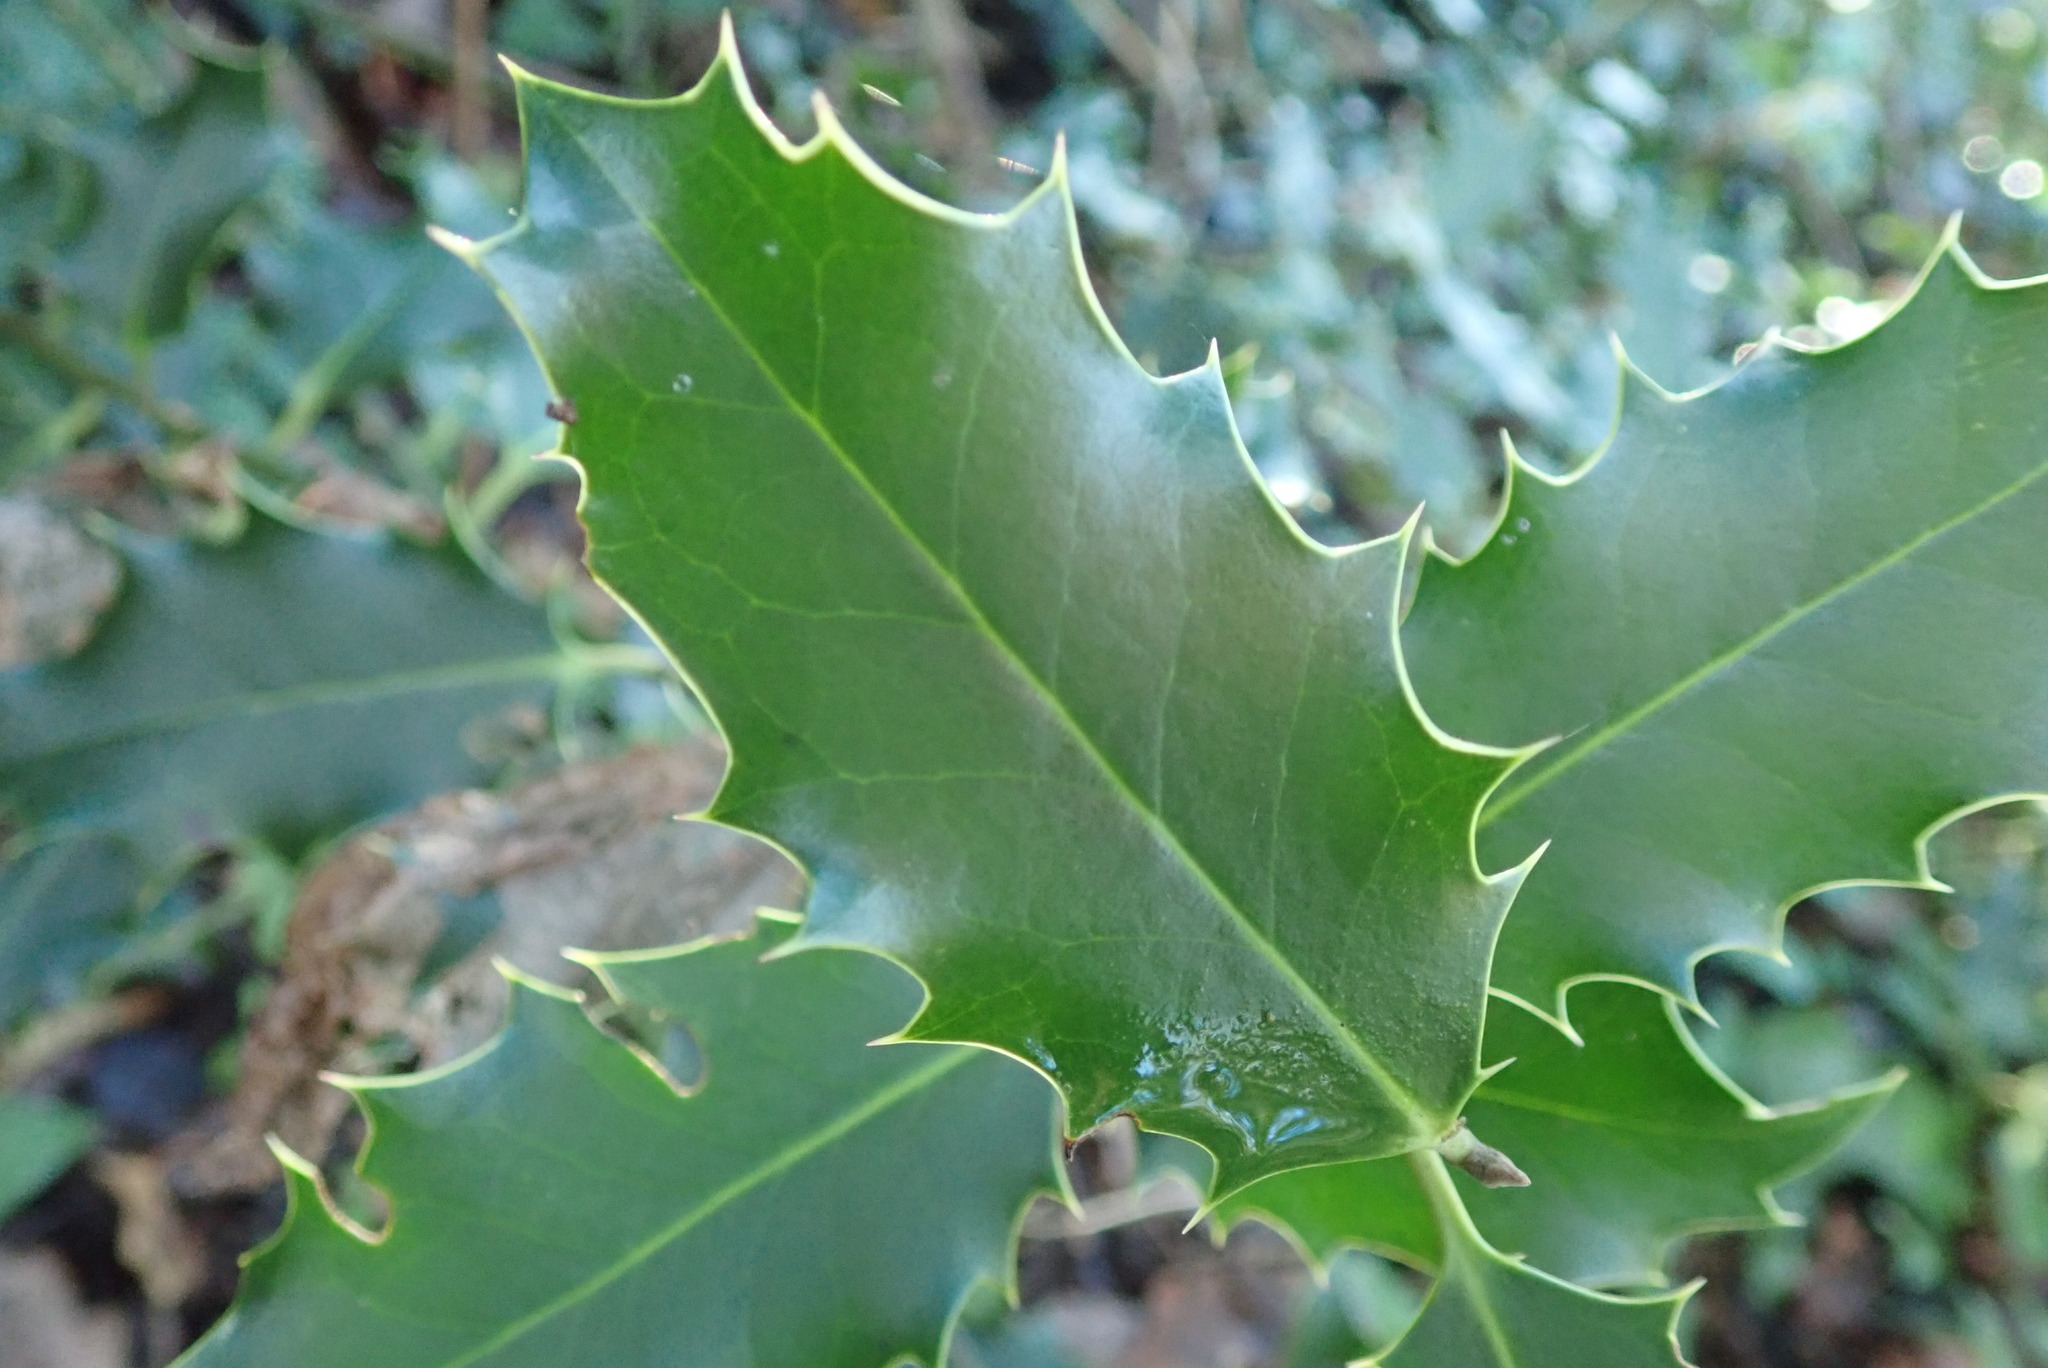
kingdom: Plantae
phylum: Tracheophyta
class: Magnoliopsida
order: Aquifoliales
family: Aquifoliaceae
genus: Ilex
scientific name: Ilex aquifolium
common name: English holly
